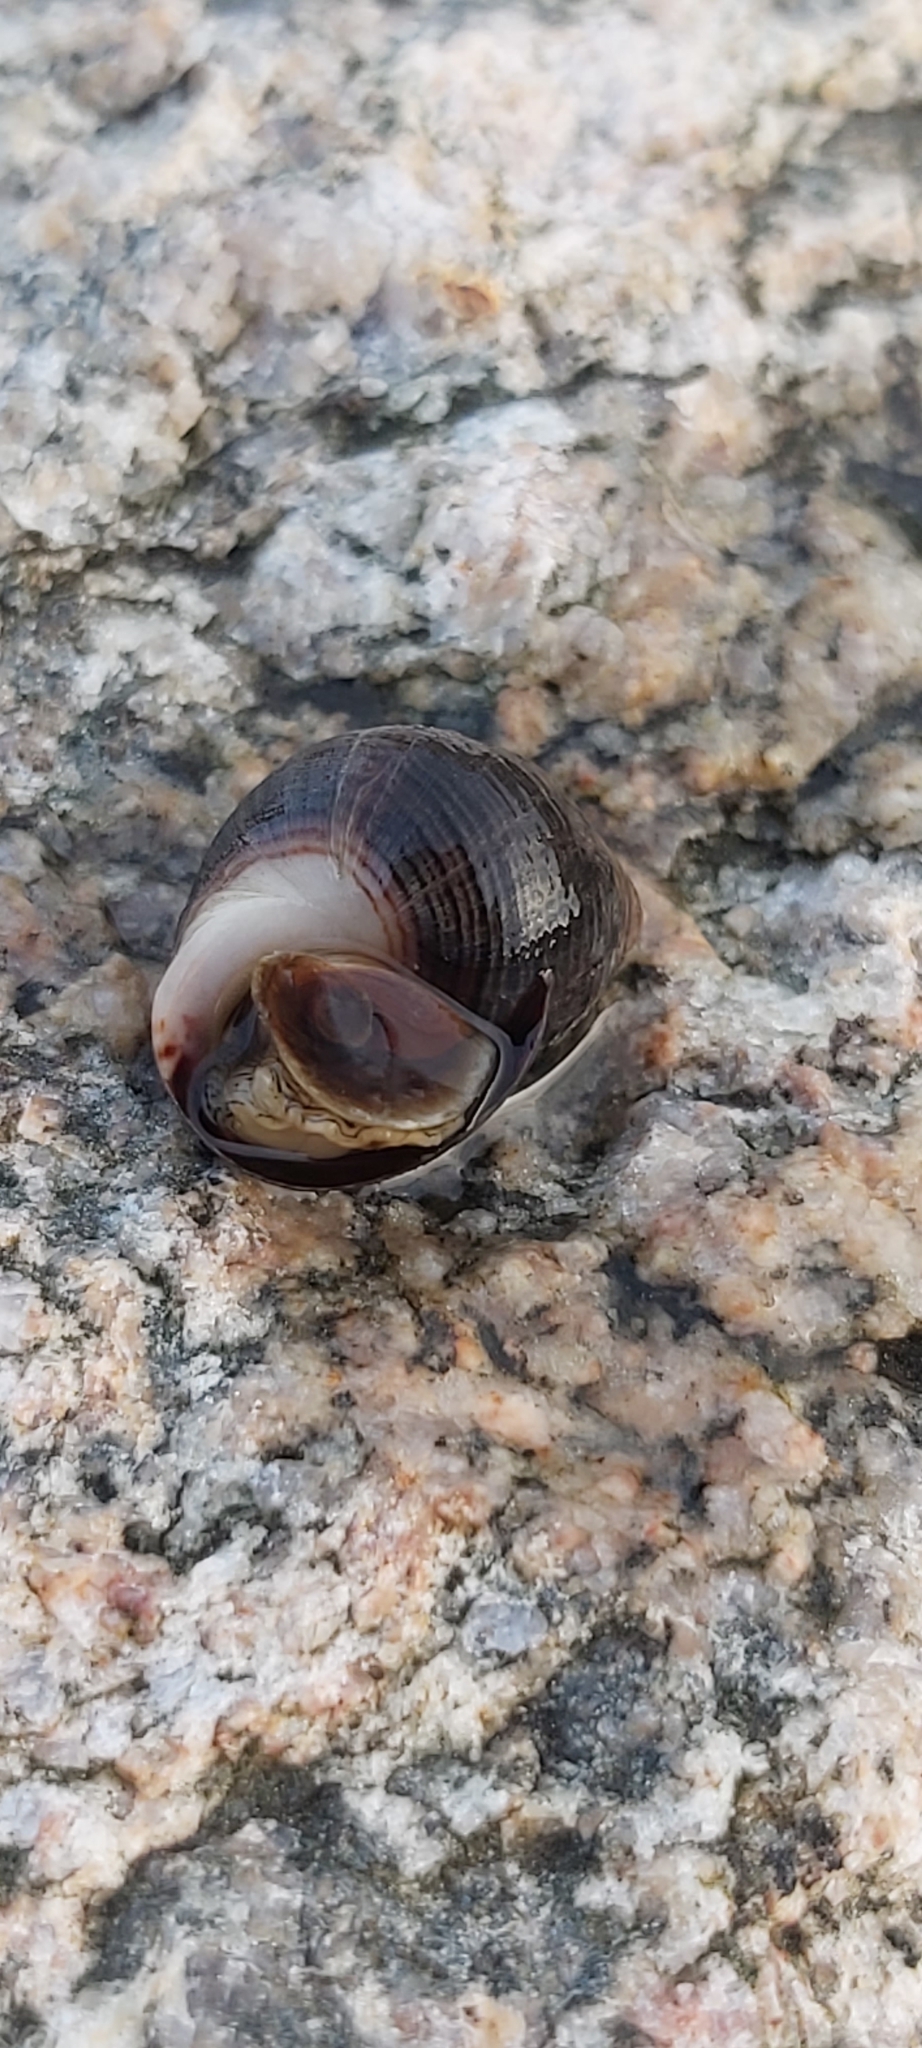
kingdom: Animalia
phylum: Mollusca
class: Gastropoda
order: Littorinimorpha
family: Littorinidae
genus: Littorina
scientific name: Littorina littorea
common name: Common periwinkle
